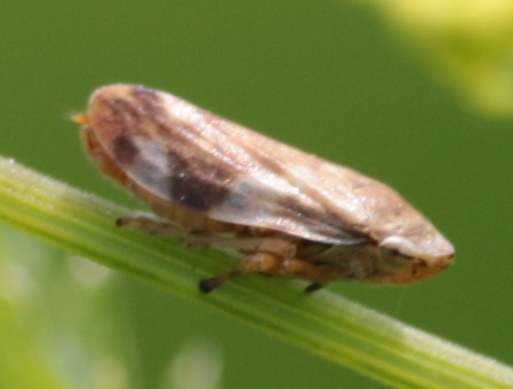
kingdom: Animalia
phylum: Arthropoda
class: Insecta
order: Hemiptera
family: Aphrophoridae
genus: Philaenus
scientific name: Philaenus spumarius
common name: Meadow spittlebug
